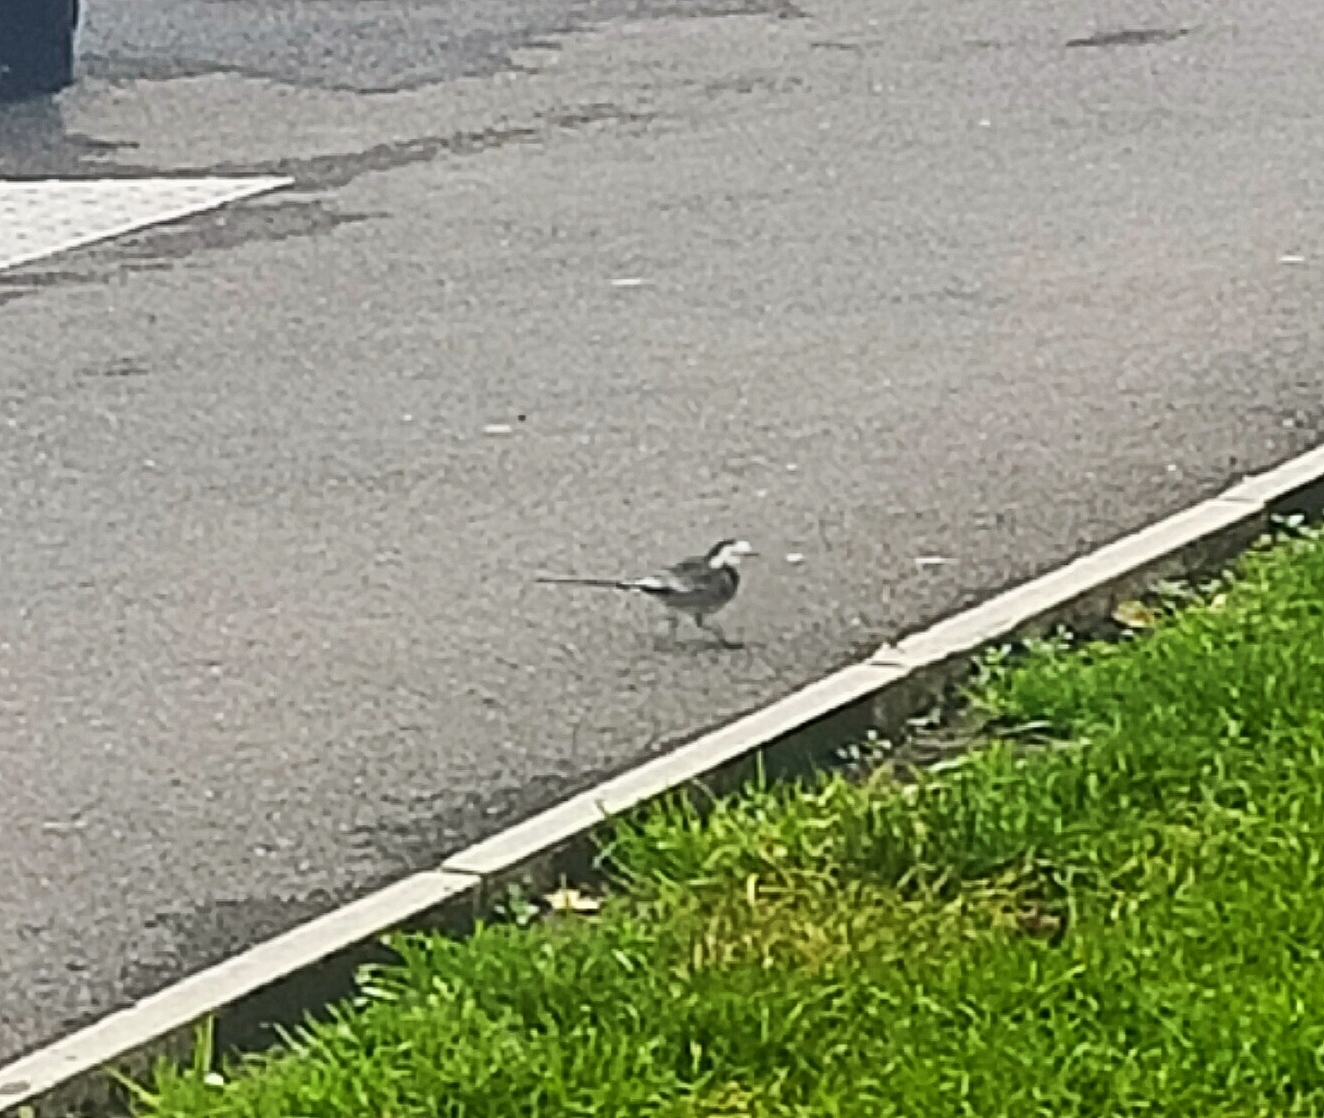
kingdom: Animalia
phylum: Chordata
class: Aves
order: Passeriformes
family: Motacillidae
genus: Motacilla
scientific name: Motacilla alba
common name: White wagtail
